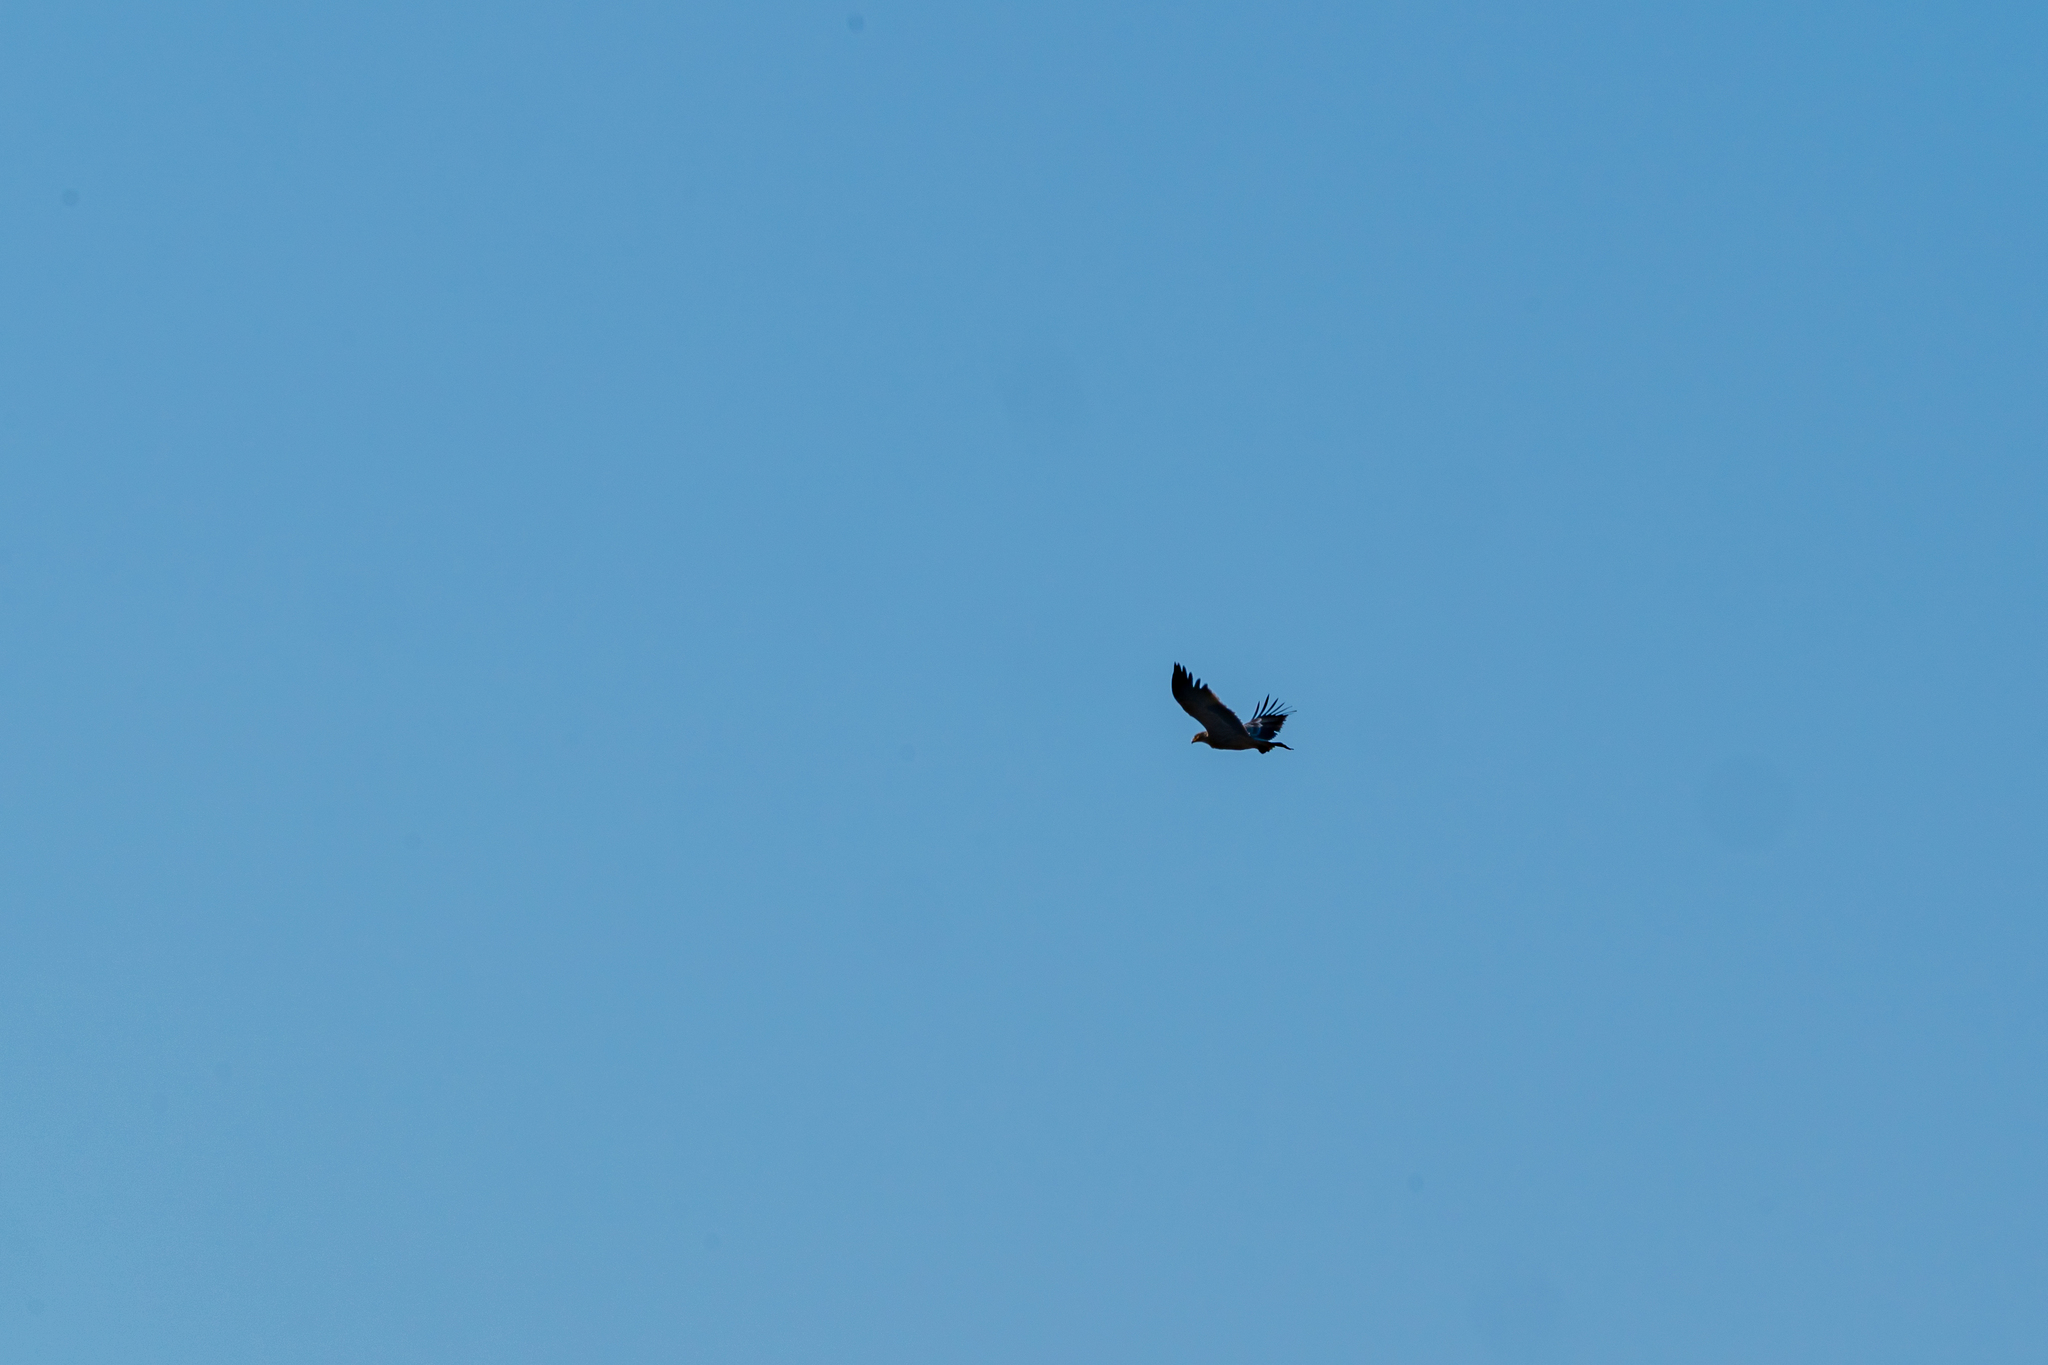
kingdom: Animalia
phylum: Chordata
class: Aves
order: Accipitriformes
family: Accipitridae
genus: Aquila
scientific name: Aquila heliaca
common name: Eastern imperial eagle
